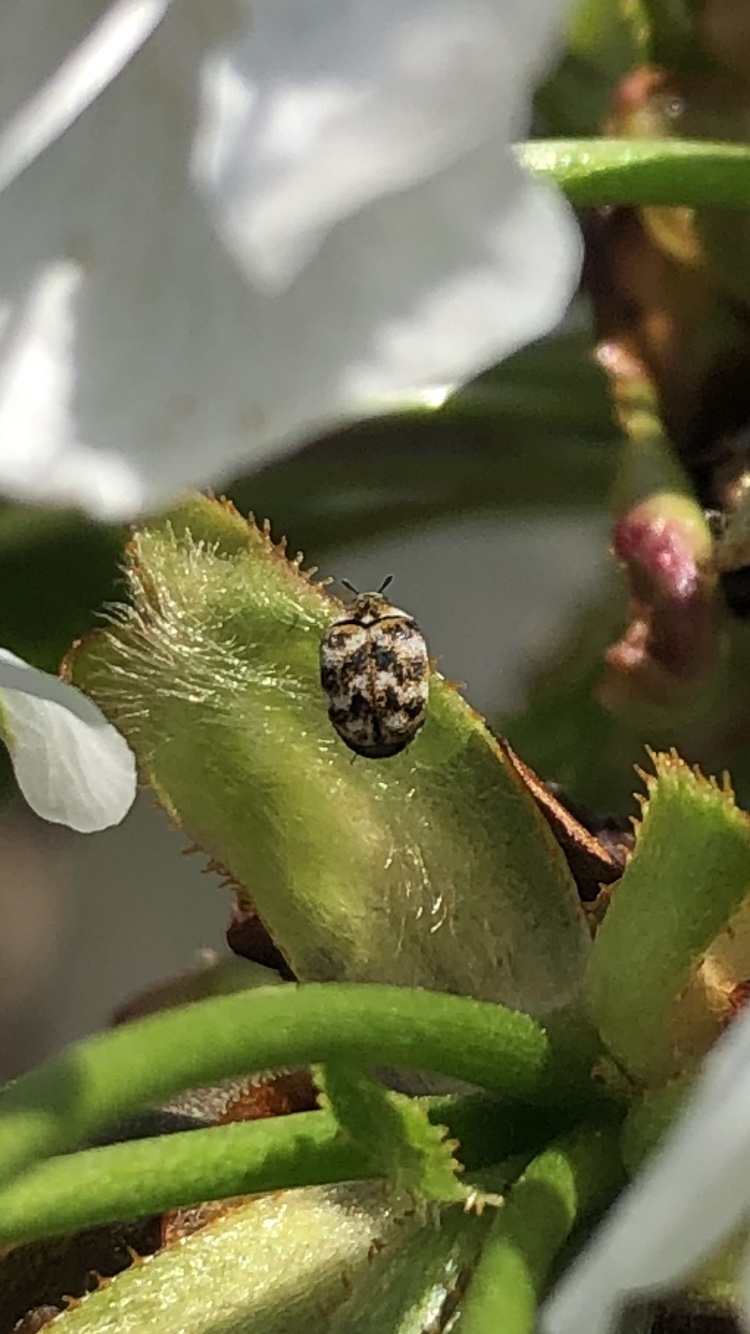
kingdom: Animalia
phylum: Arthropoda
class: Insecta
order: Coleoptera
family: Dermestidae
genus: Anthrenus
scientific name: Anthrenus verbasci
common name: Varied carpet beetle
